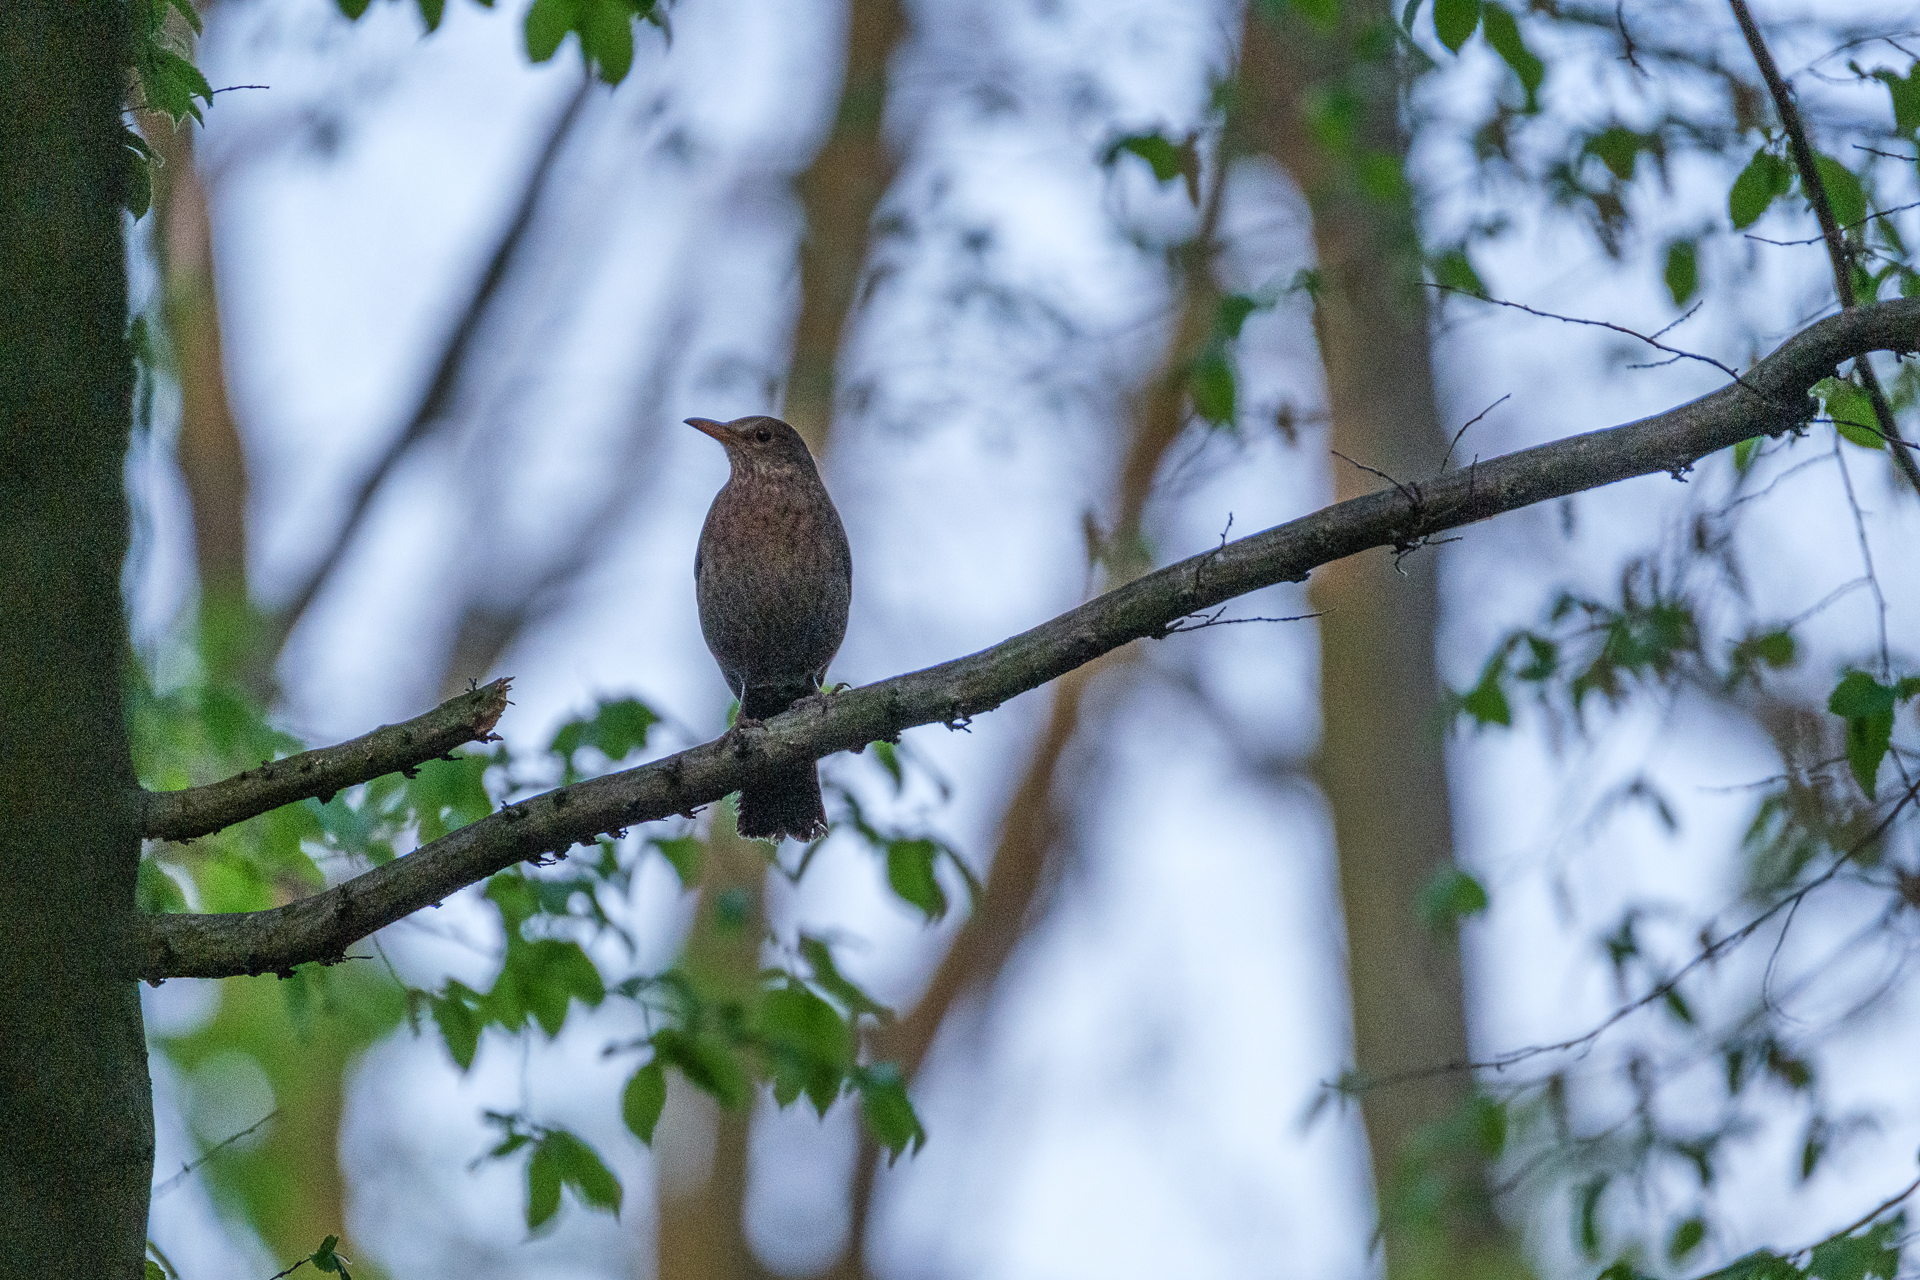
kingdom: Animalia
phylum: Chordata
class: Aves
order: Passeriformes
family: Turdidae
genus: Turdus
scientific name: Turdus merula
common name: Common blackbird
